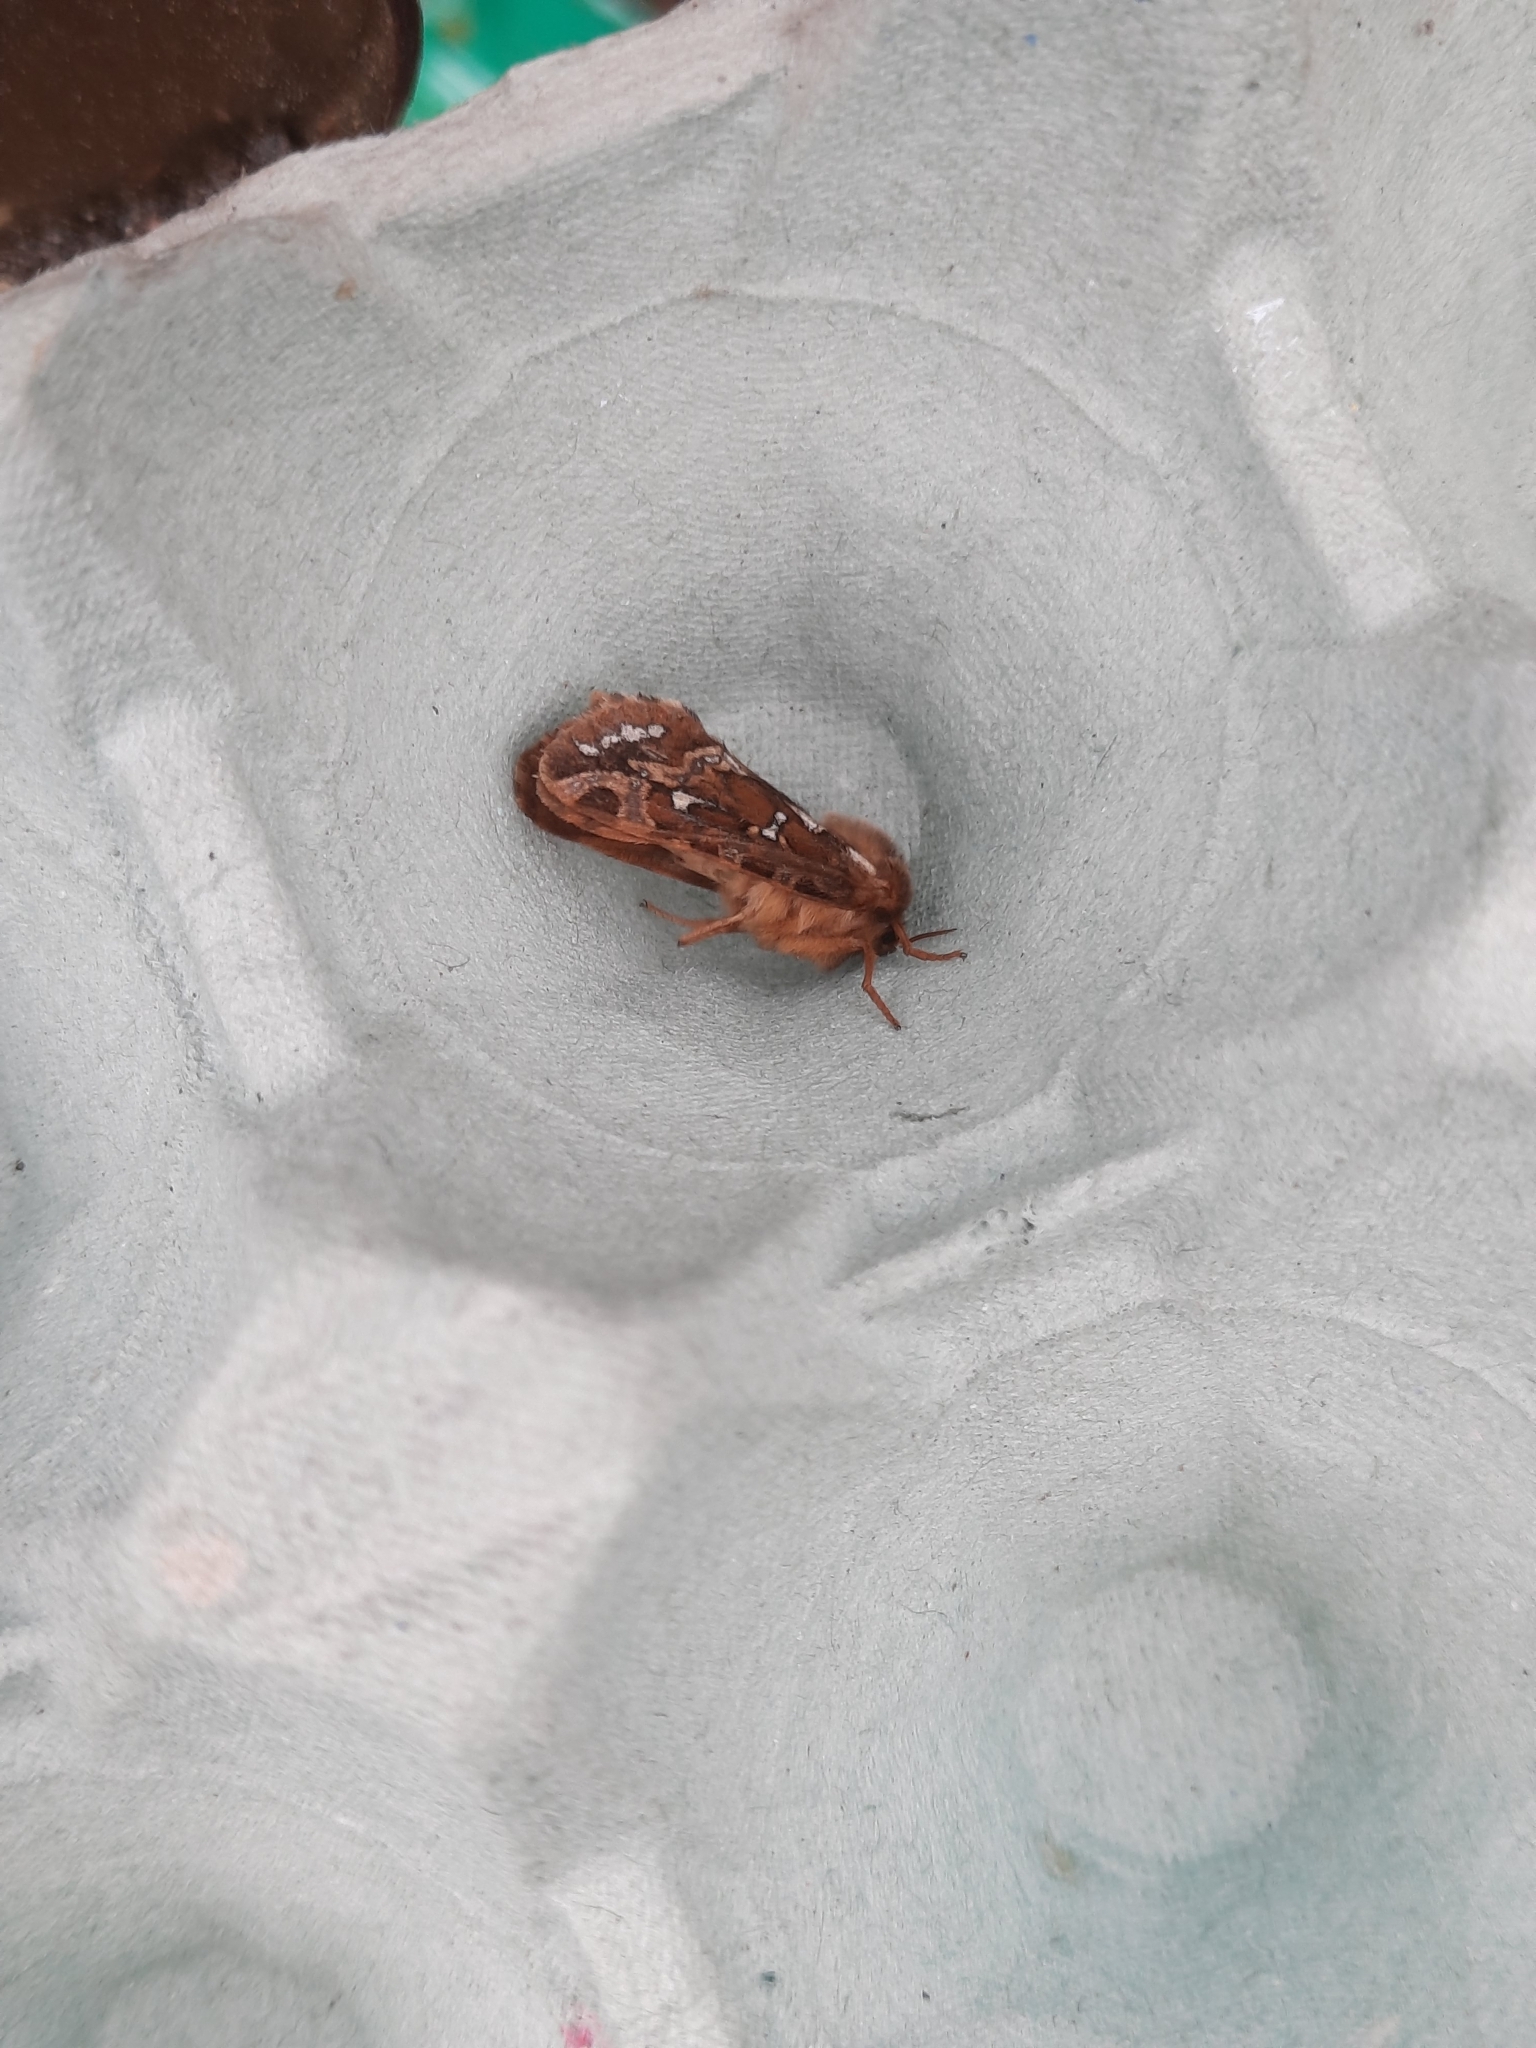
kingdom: Animalia
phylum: Arthropoda
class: Insecta
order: Lepidoptera
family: Hepialidae
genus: Korscheltellus
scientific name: Korscheltellus fusconebulosus
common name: Map-winged swift
